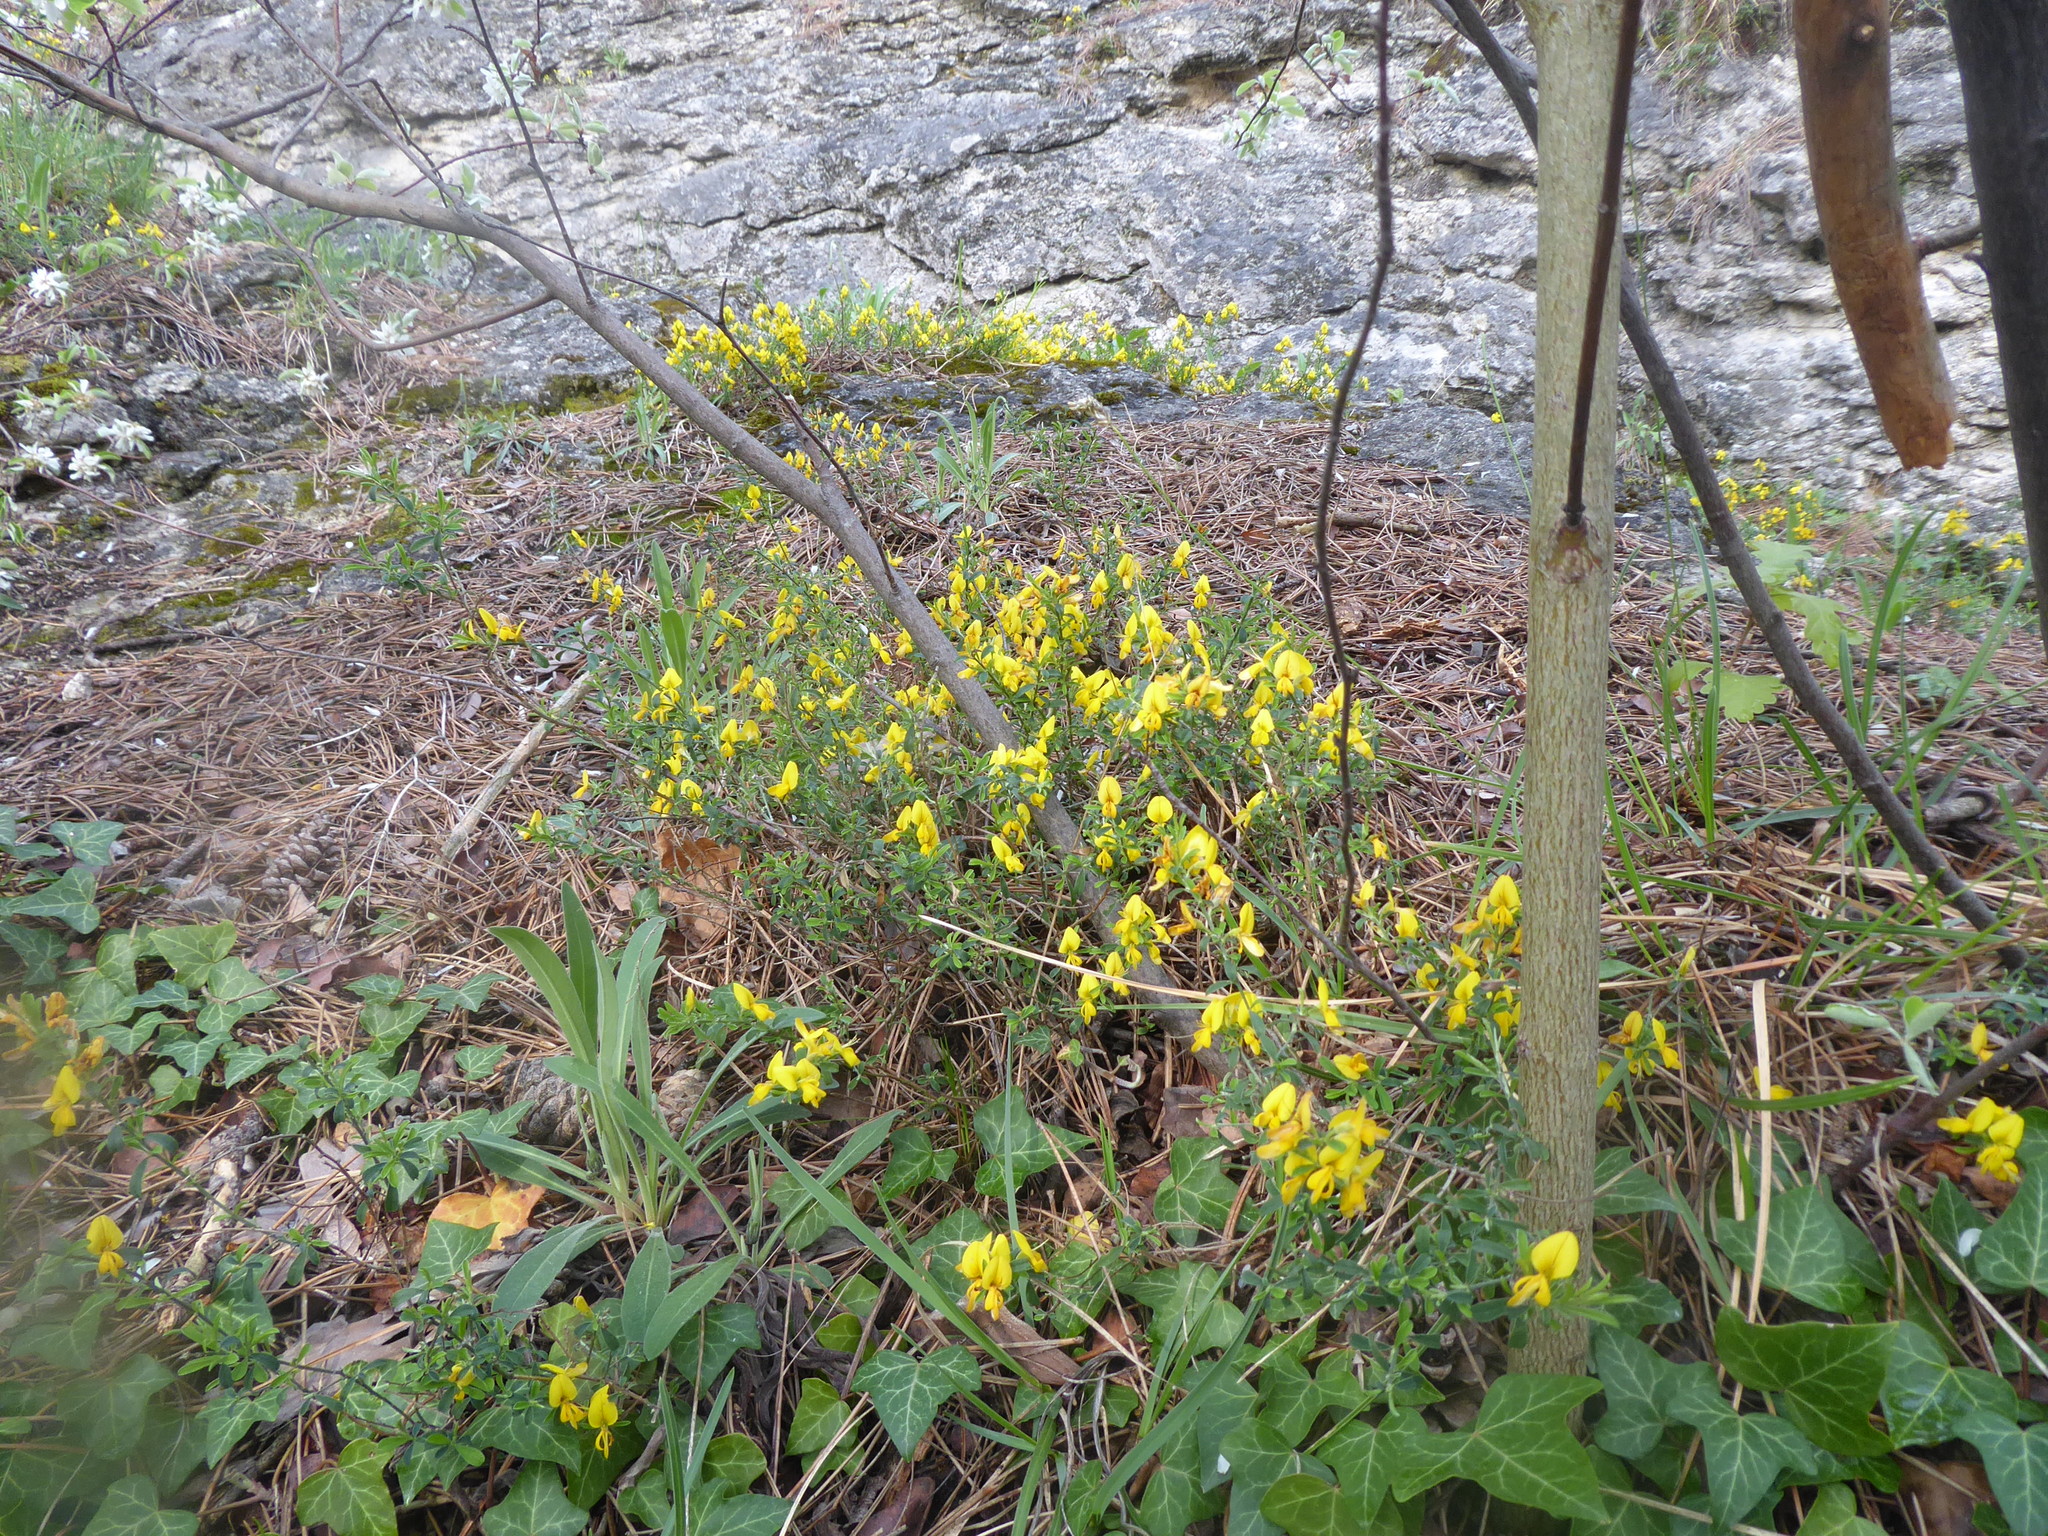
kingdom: Plantae
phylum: Tracheophyta
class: Magnoliopsida
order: Fabales
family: Fabaceae
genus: Genista
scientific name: Genista pilosa
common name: Hairy greenweed
